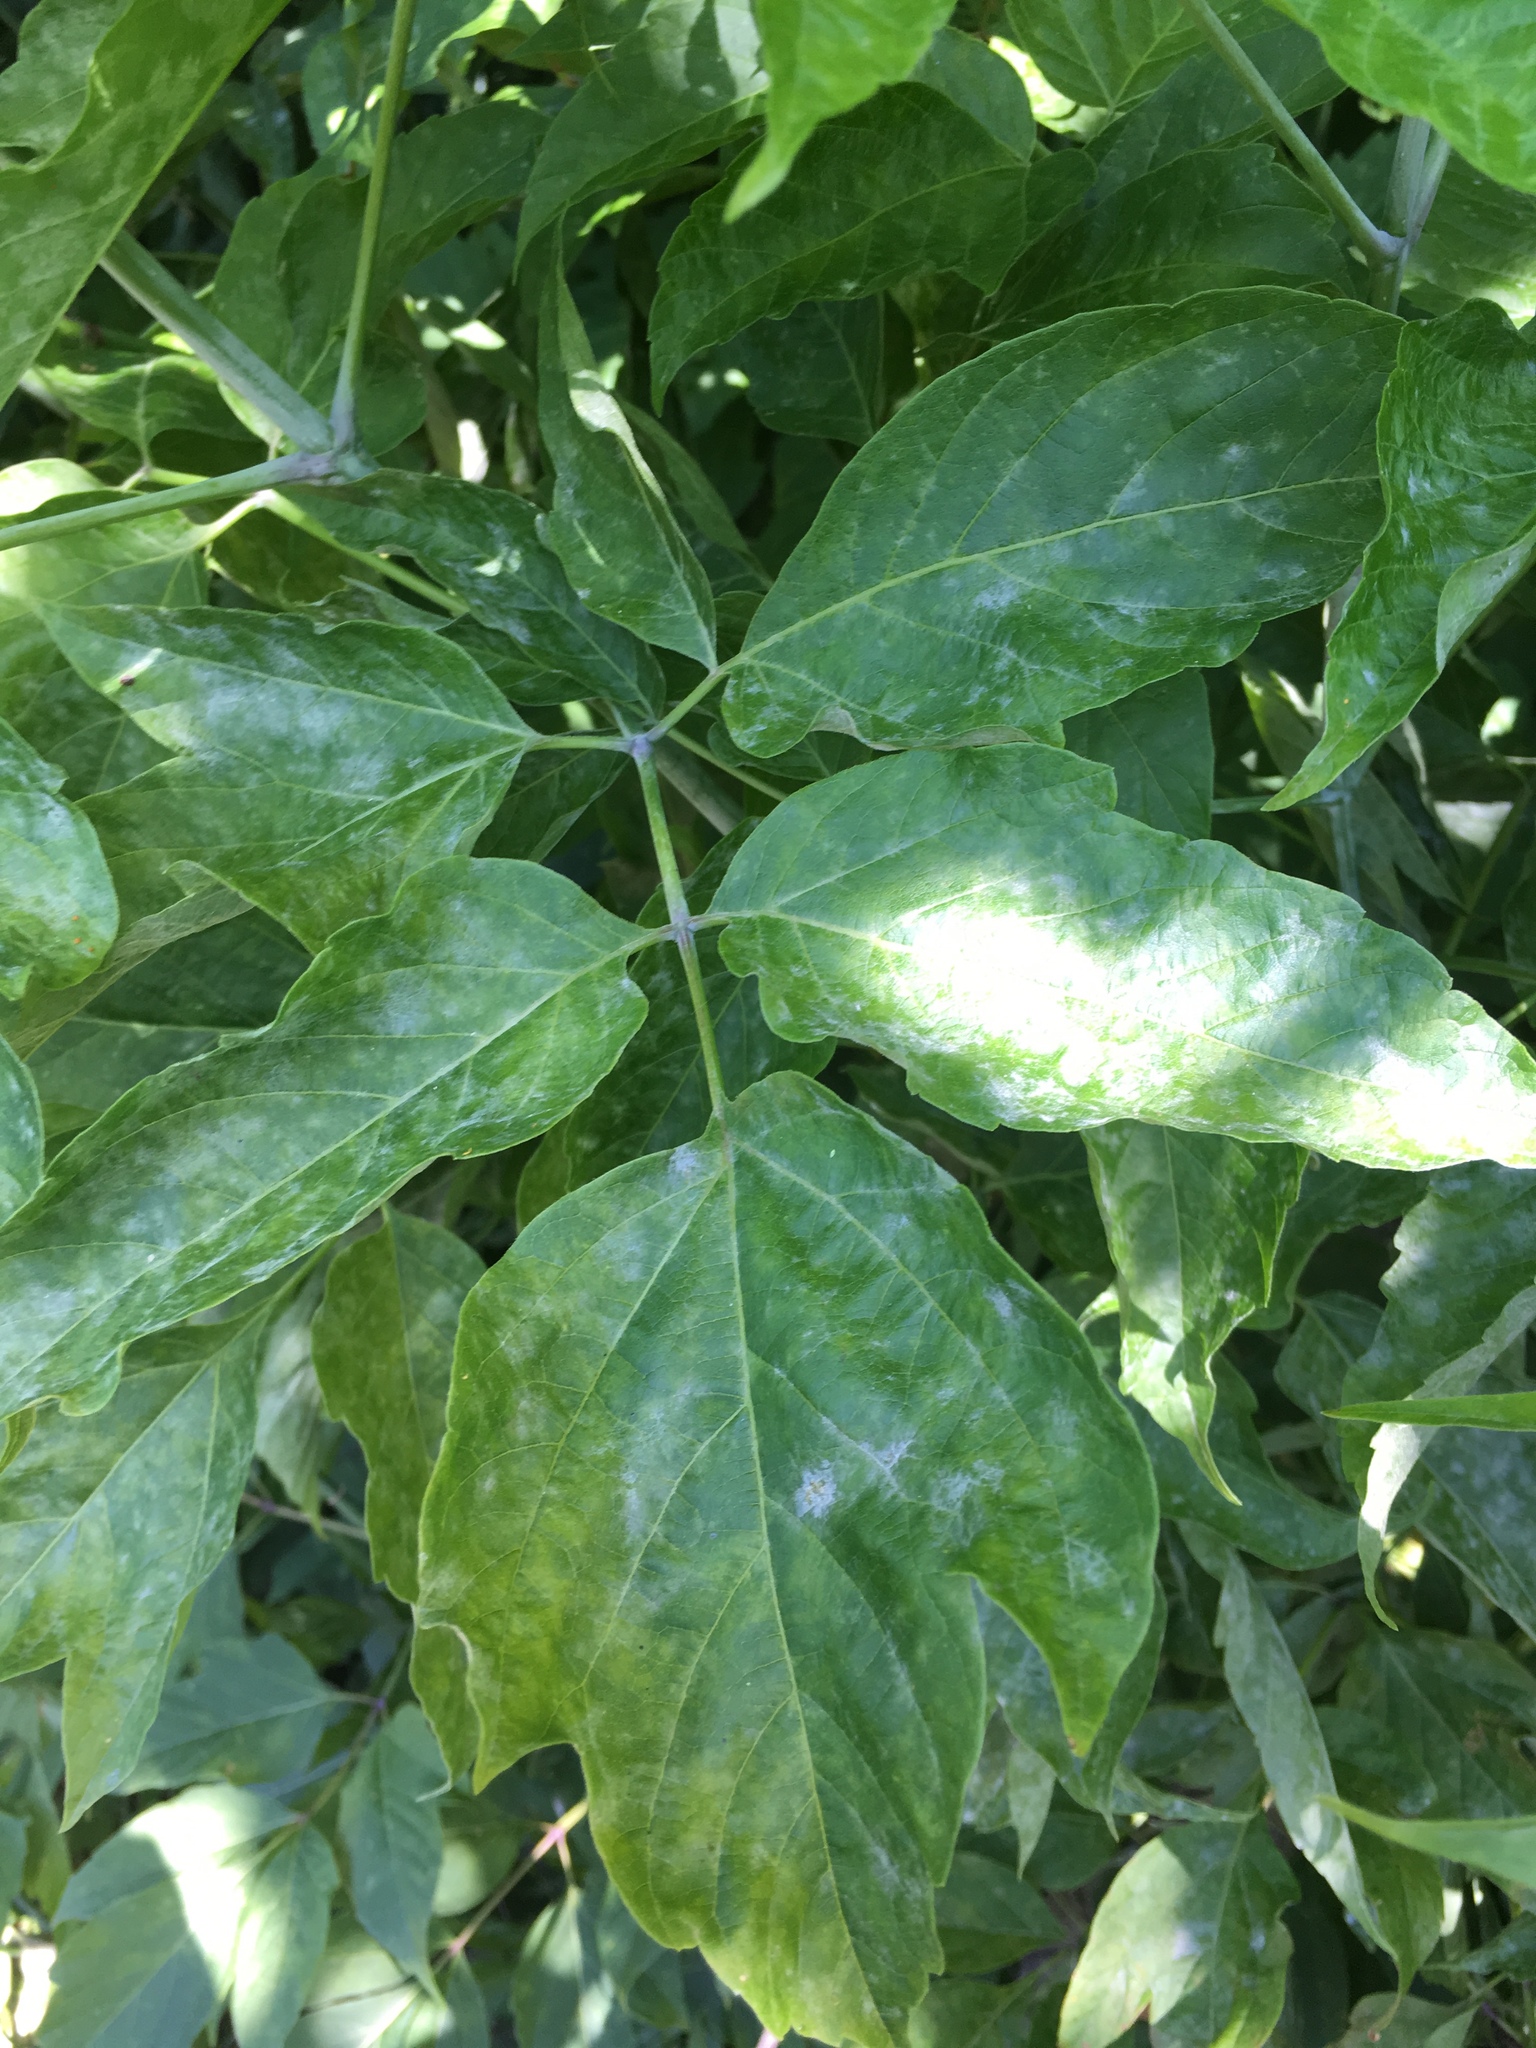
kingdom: Plantae
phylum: Tracheophyta
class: Magnoliopsida
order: Sapindales
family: Sapindaceae
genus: Acer
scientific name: Acer negundo
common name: Ashleaf maple
